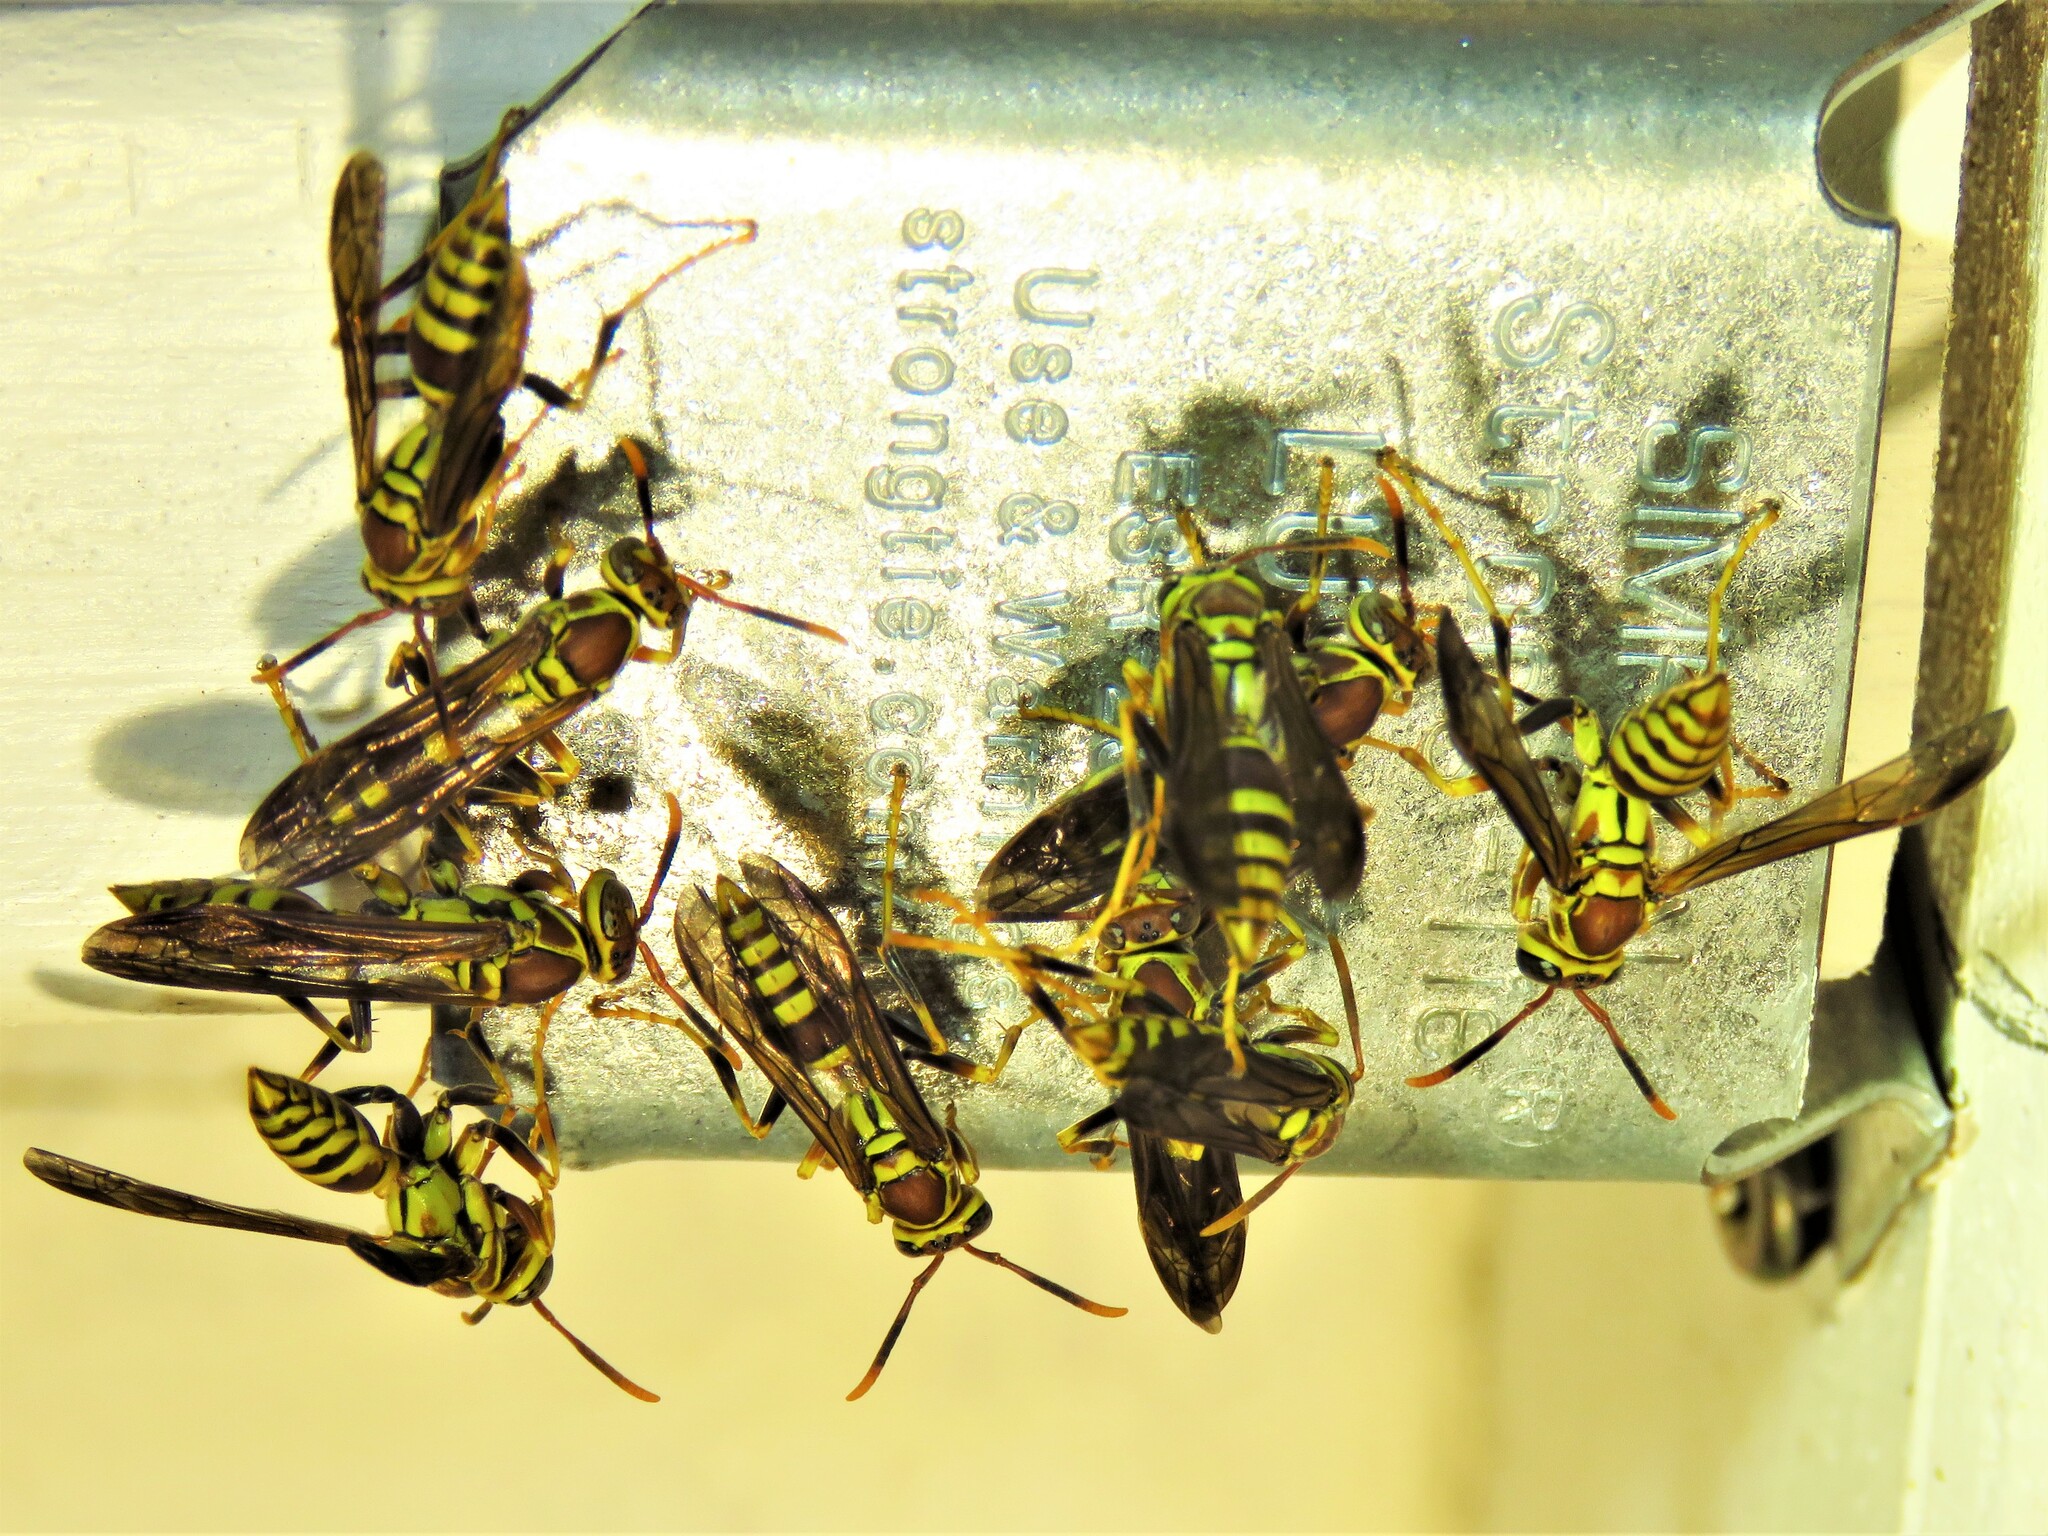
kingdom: Animalia
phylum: Arthropoda
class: Insecta
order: Hymenoptera
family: Eumenidae
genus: Polistes
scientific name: Polistes exclamans
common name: Paper wasp
